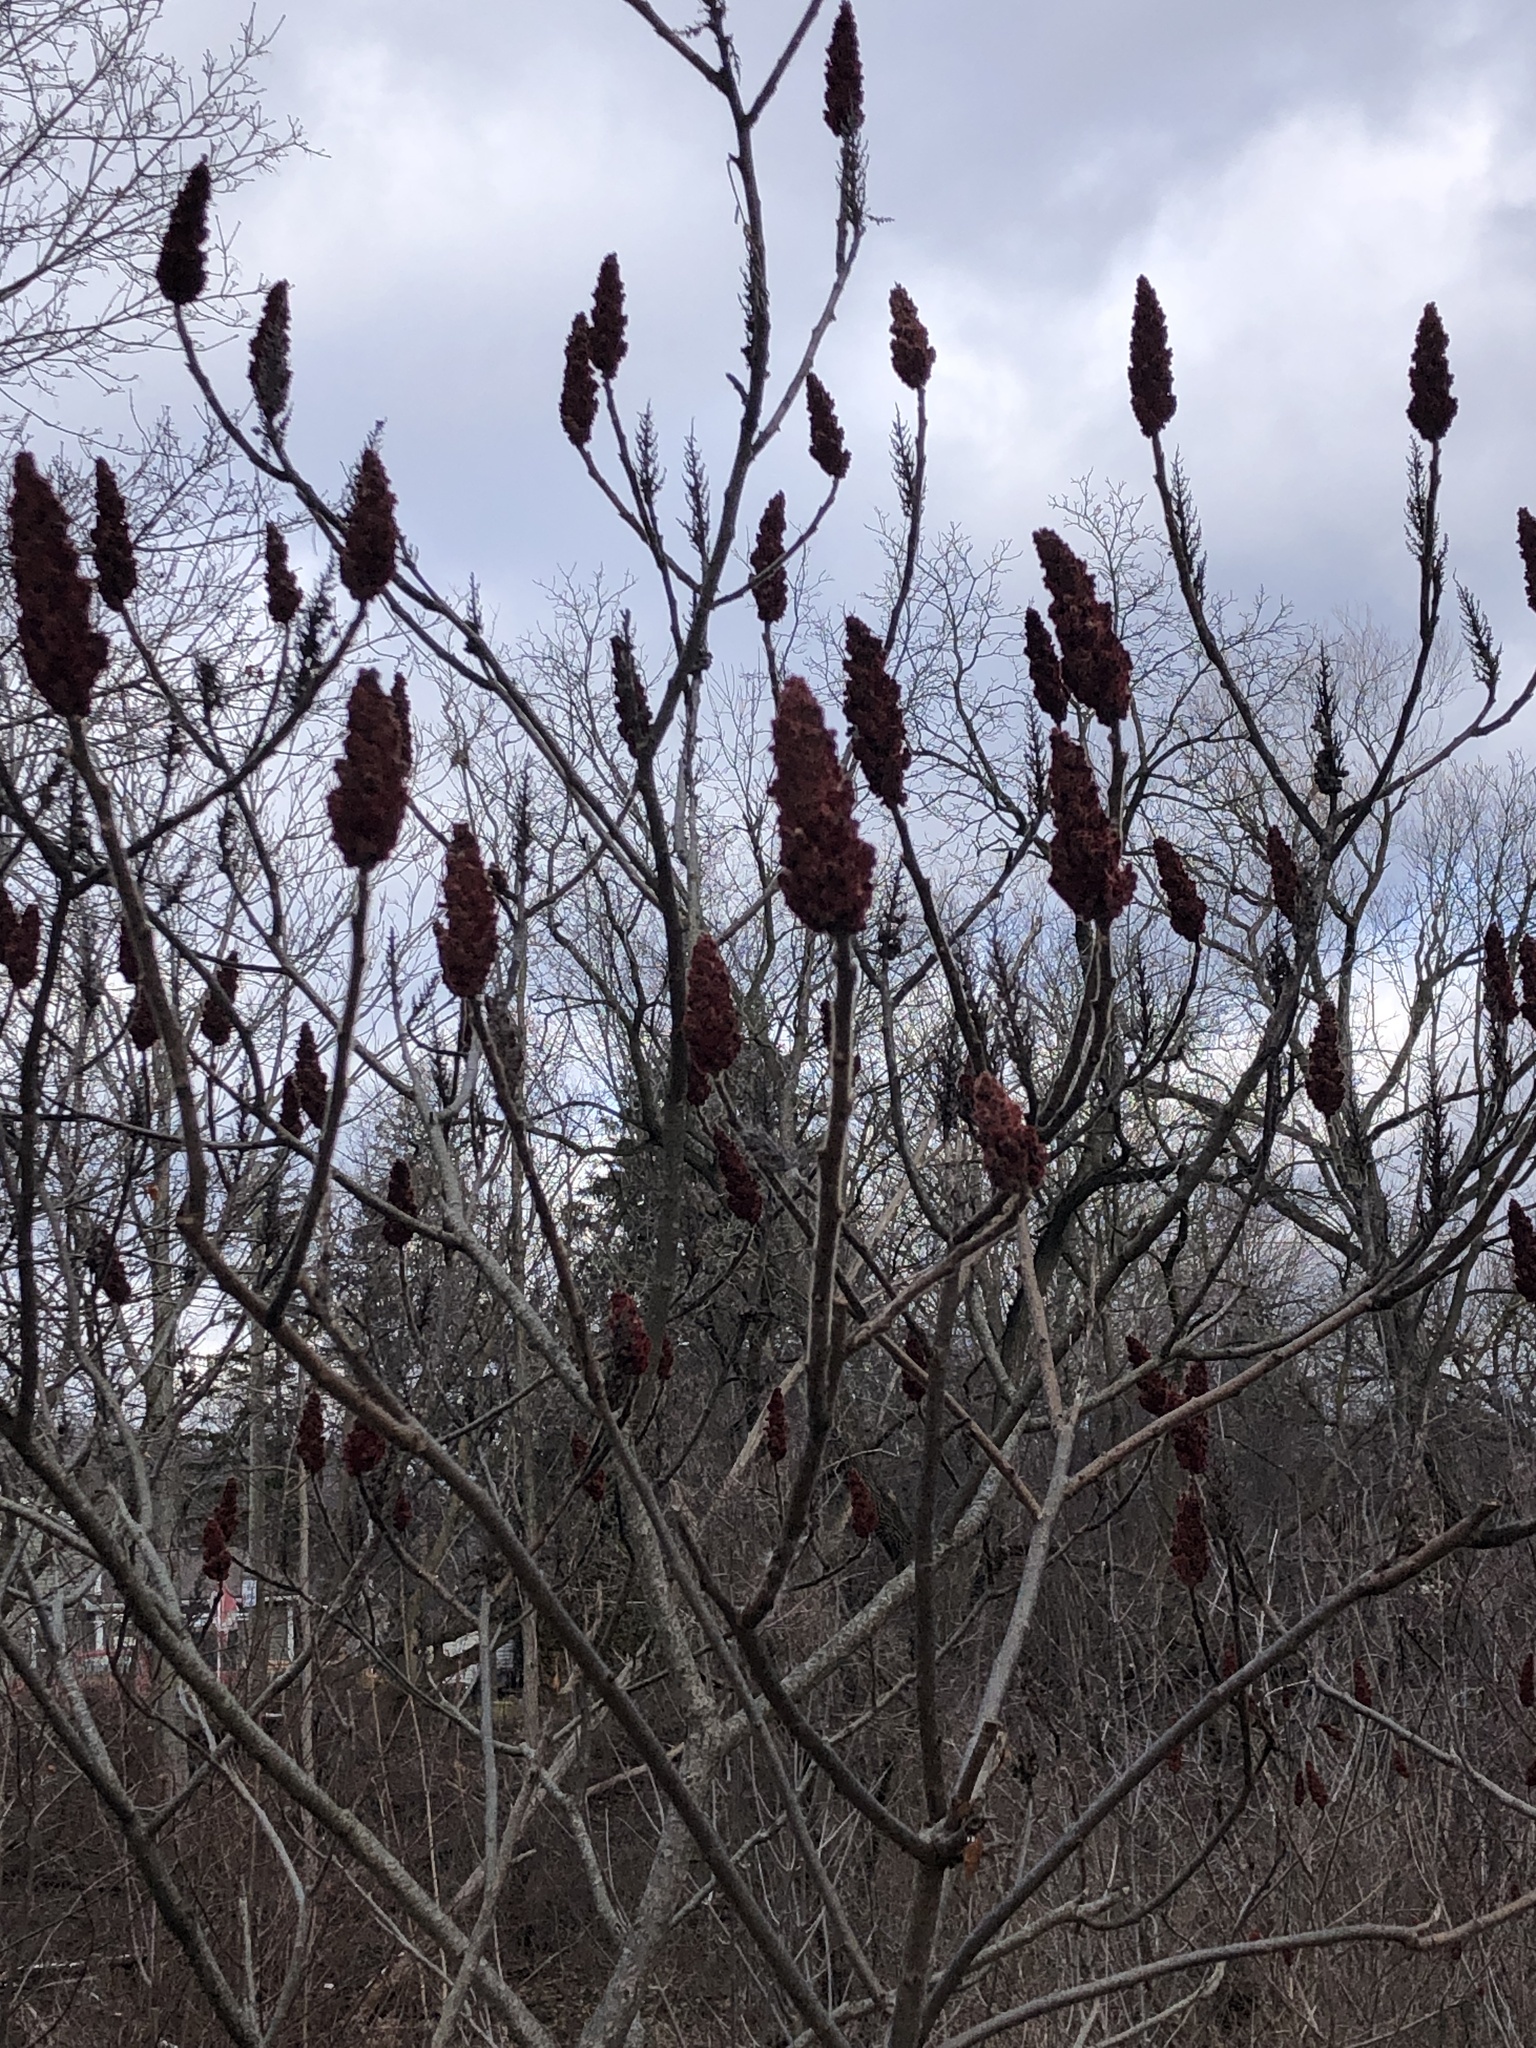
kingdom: Plantae
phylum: Tracheophyta
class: Magnoliopsida
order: Sapindales
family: Anacardiaceae
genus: Rhus
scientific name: Rhus typhina
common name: Staghorn sumac
